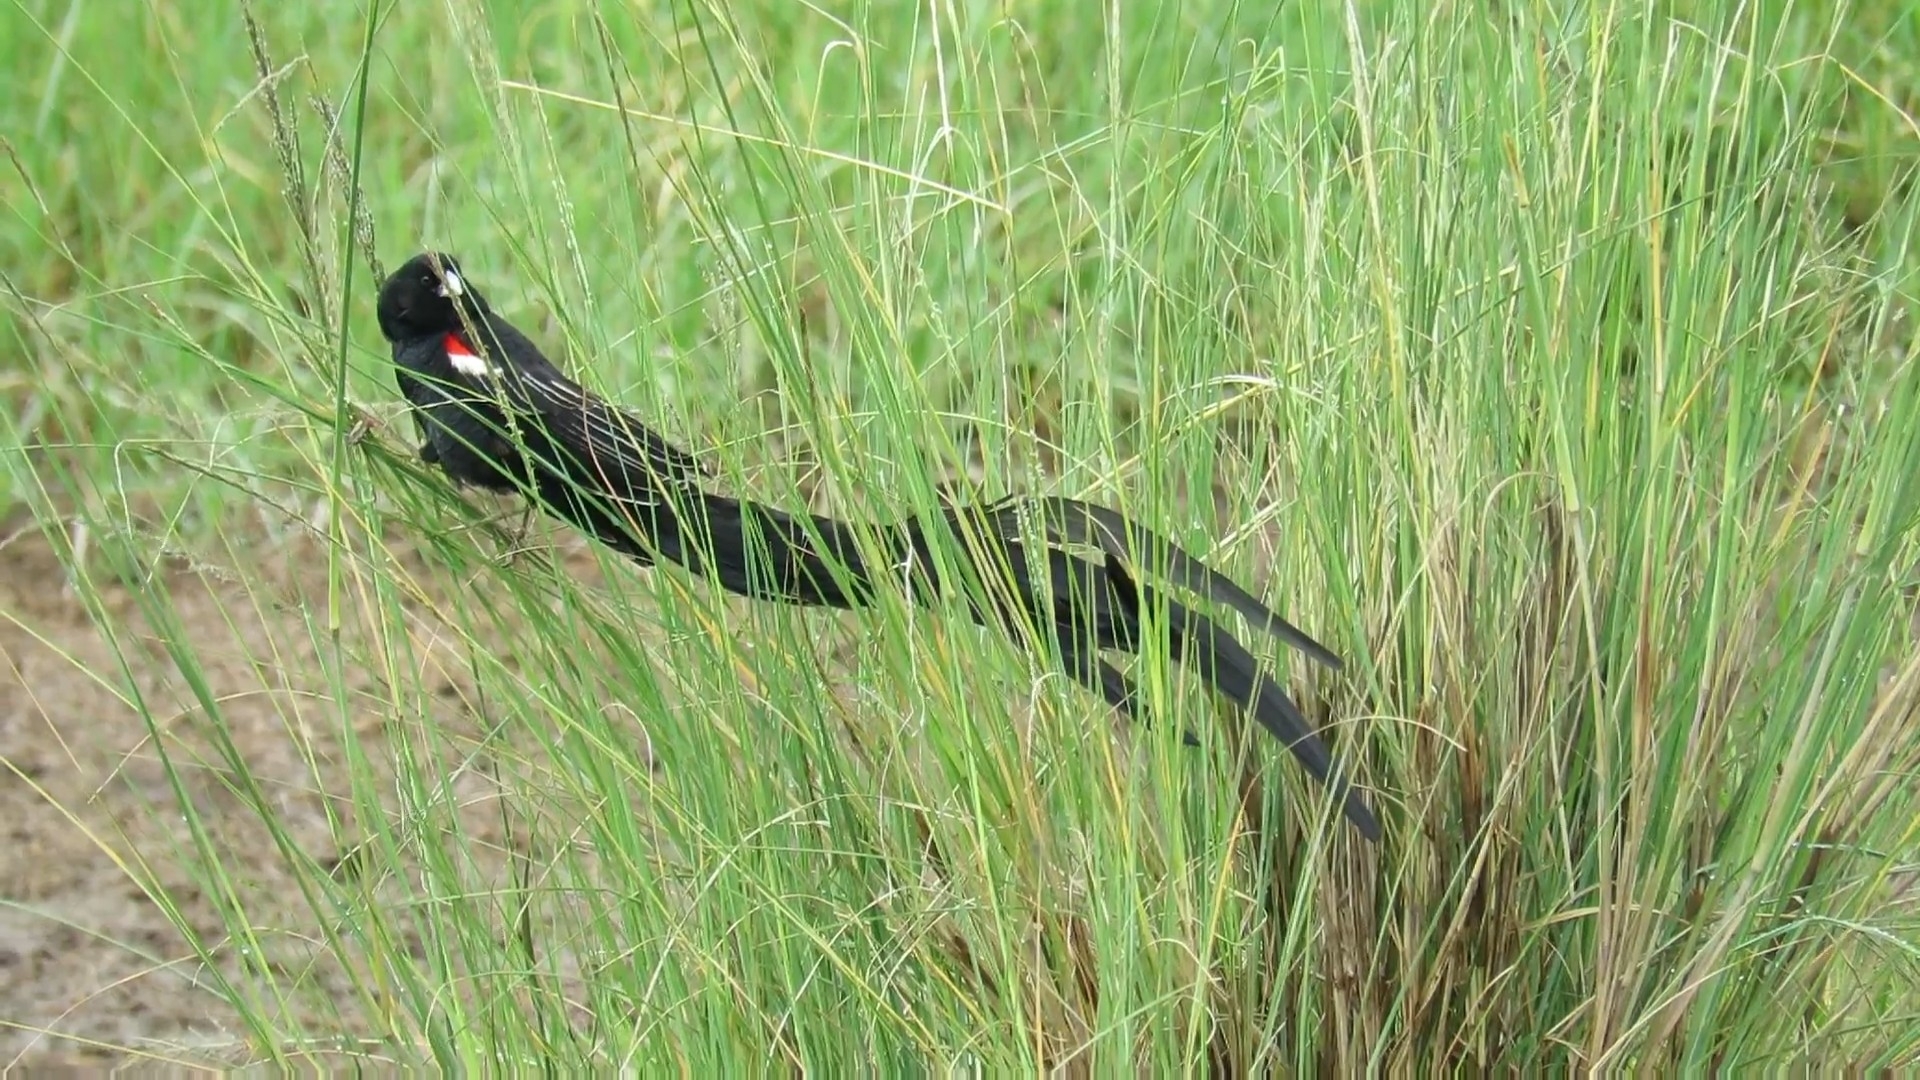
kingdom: Animalia
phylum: Chordata
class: Aves
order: Passeriformes
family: Ploceidae
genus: Euplectes
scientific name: Euplectes progne
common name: Long-tailed widowbird
